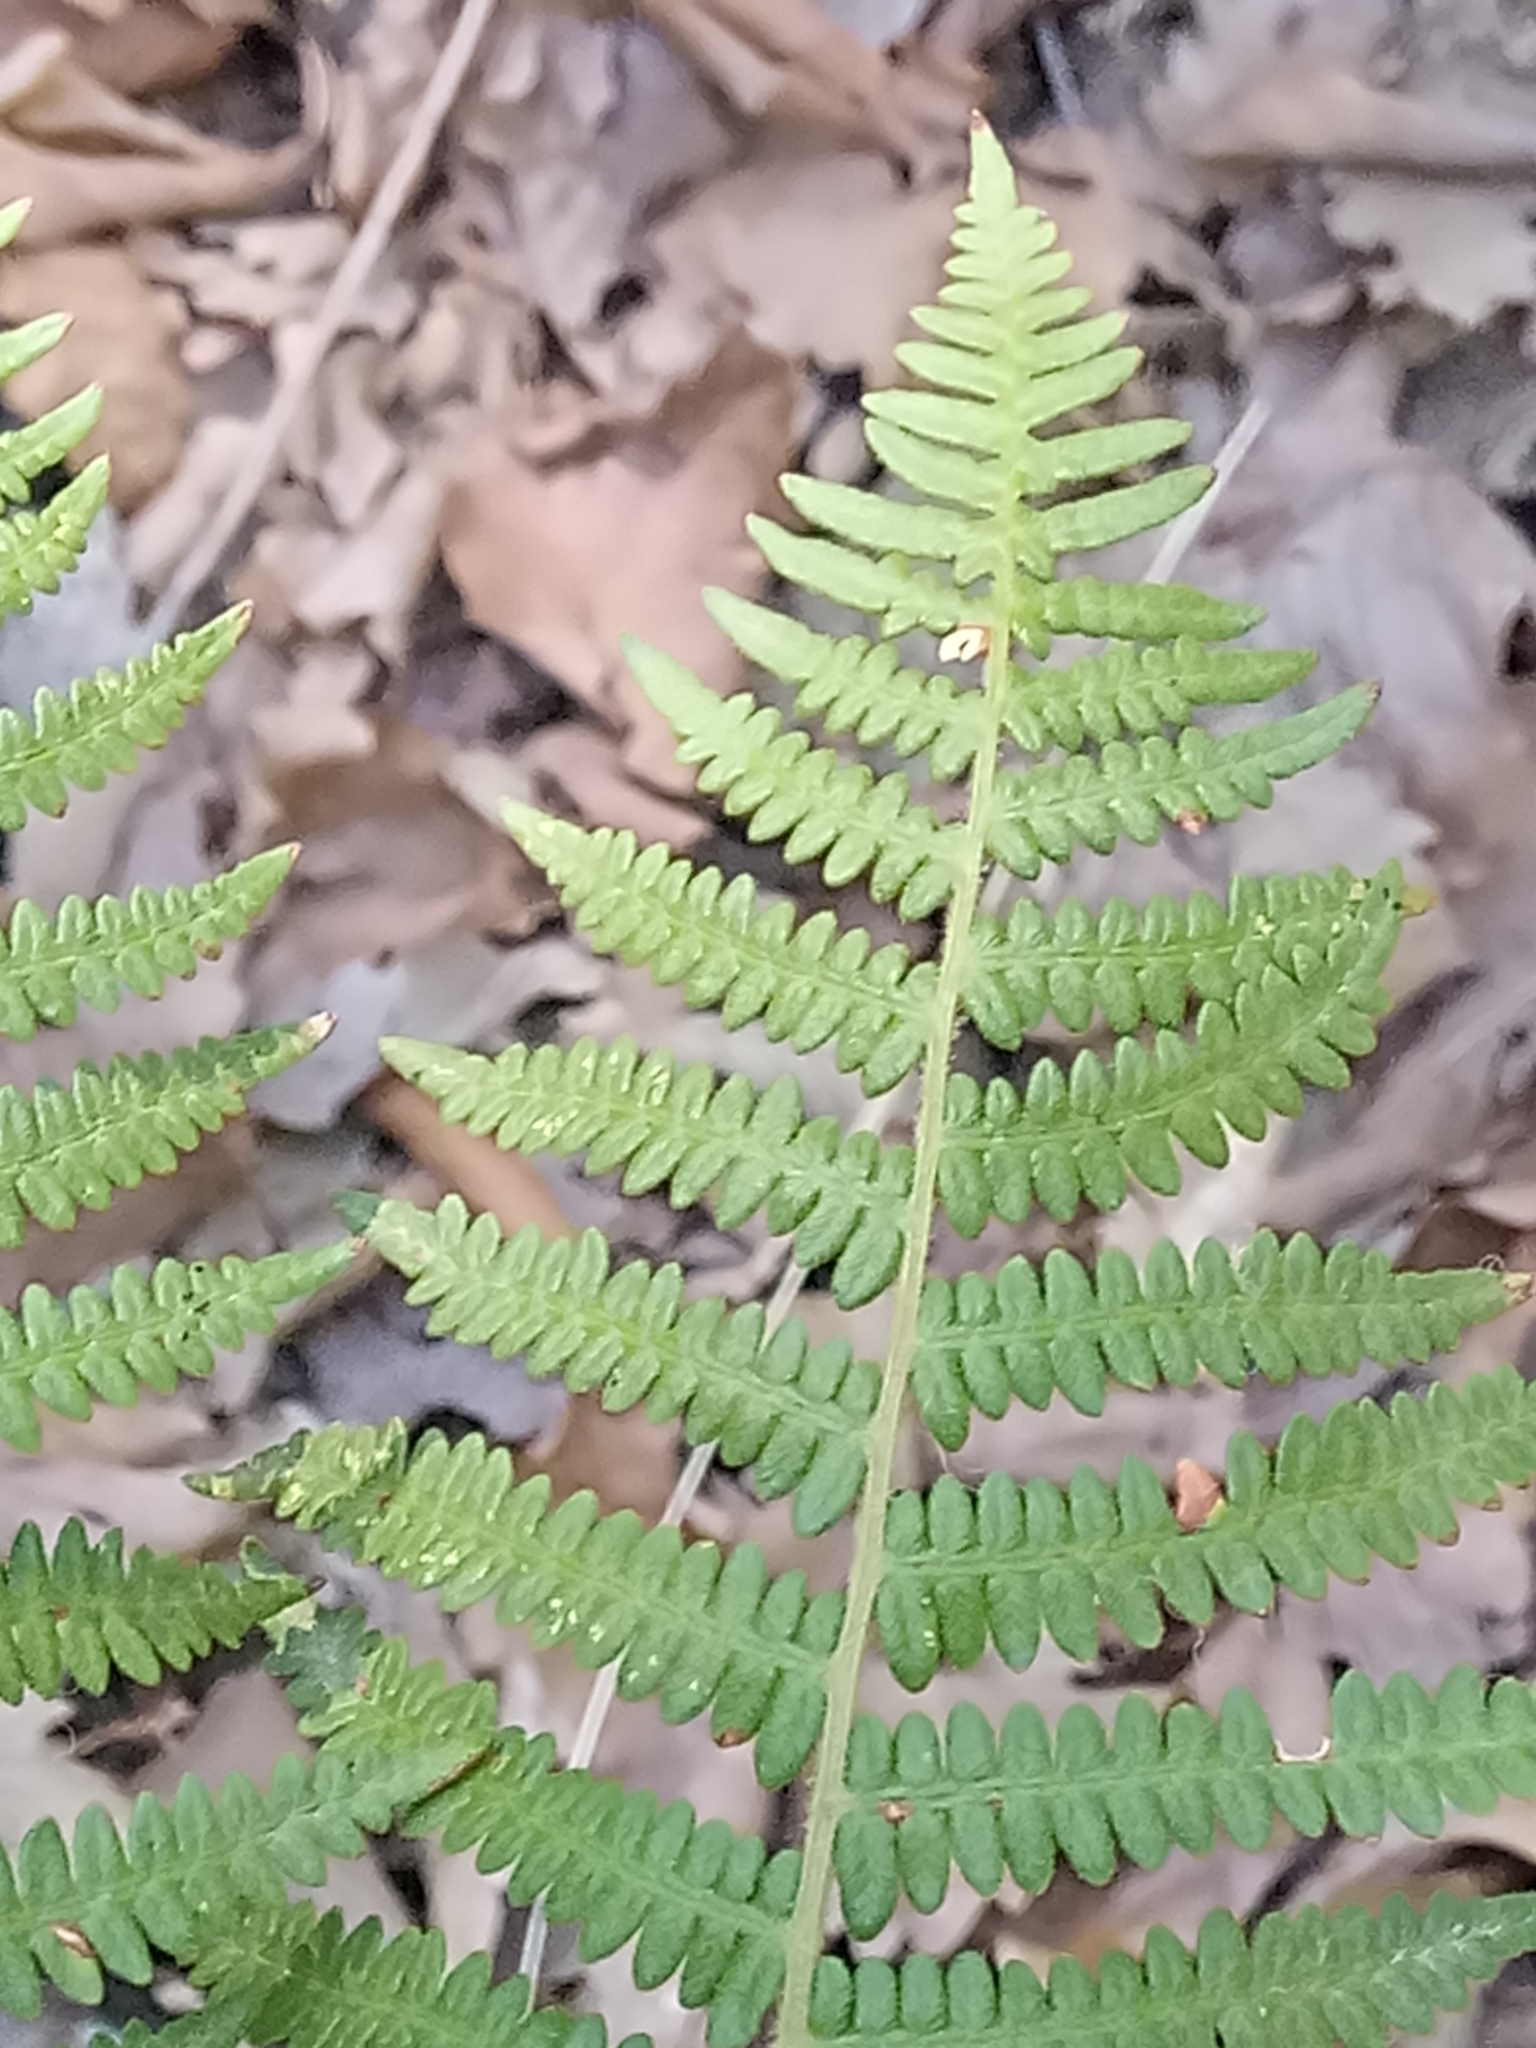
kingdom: Plantae
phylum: Tracheophyta
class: Polypodiopsida
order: Polypodiales
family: Dennstaedtiaceae
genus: Pteridium
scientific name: Pteridium aquilinum
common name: Bracken
